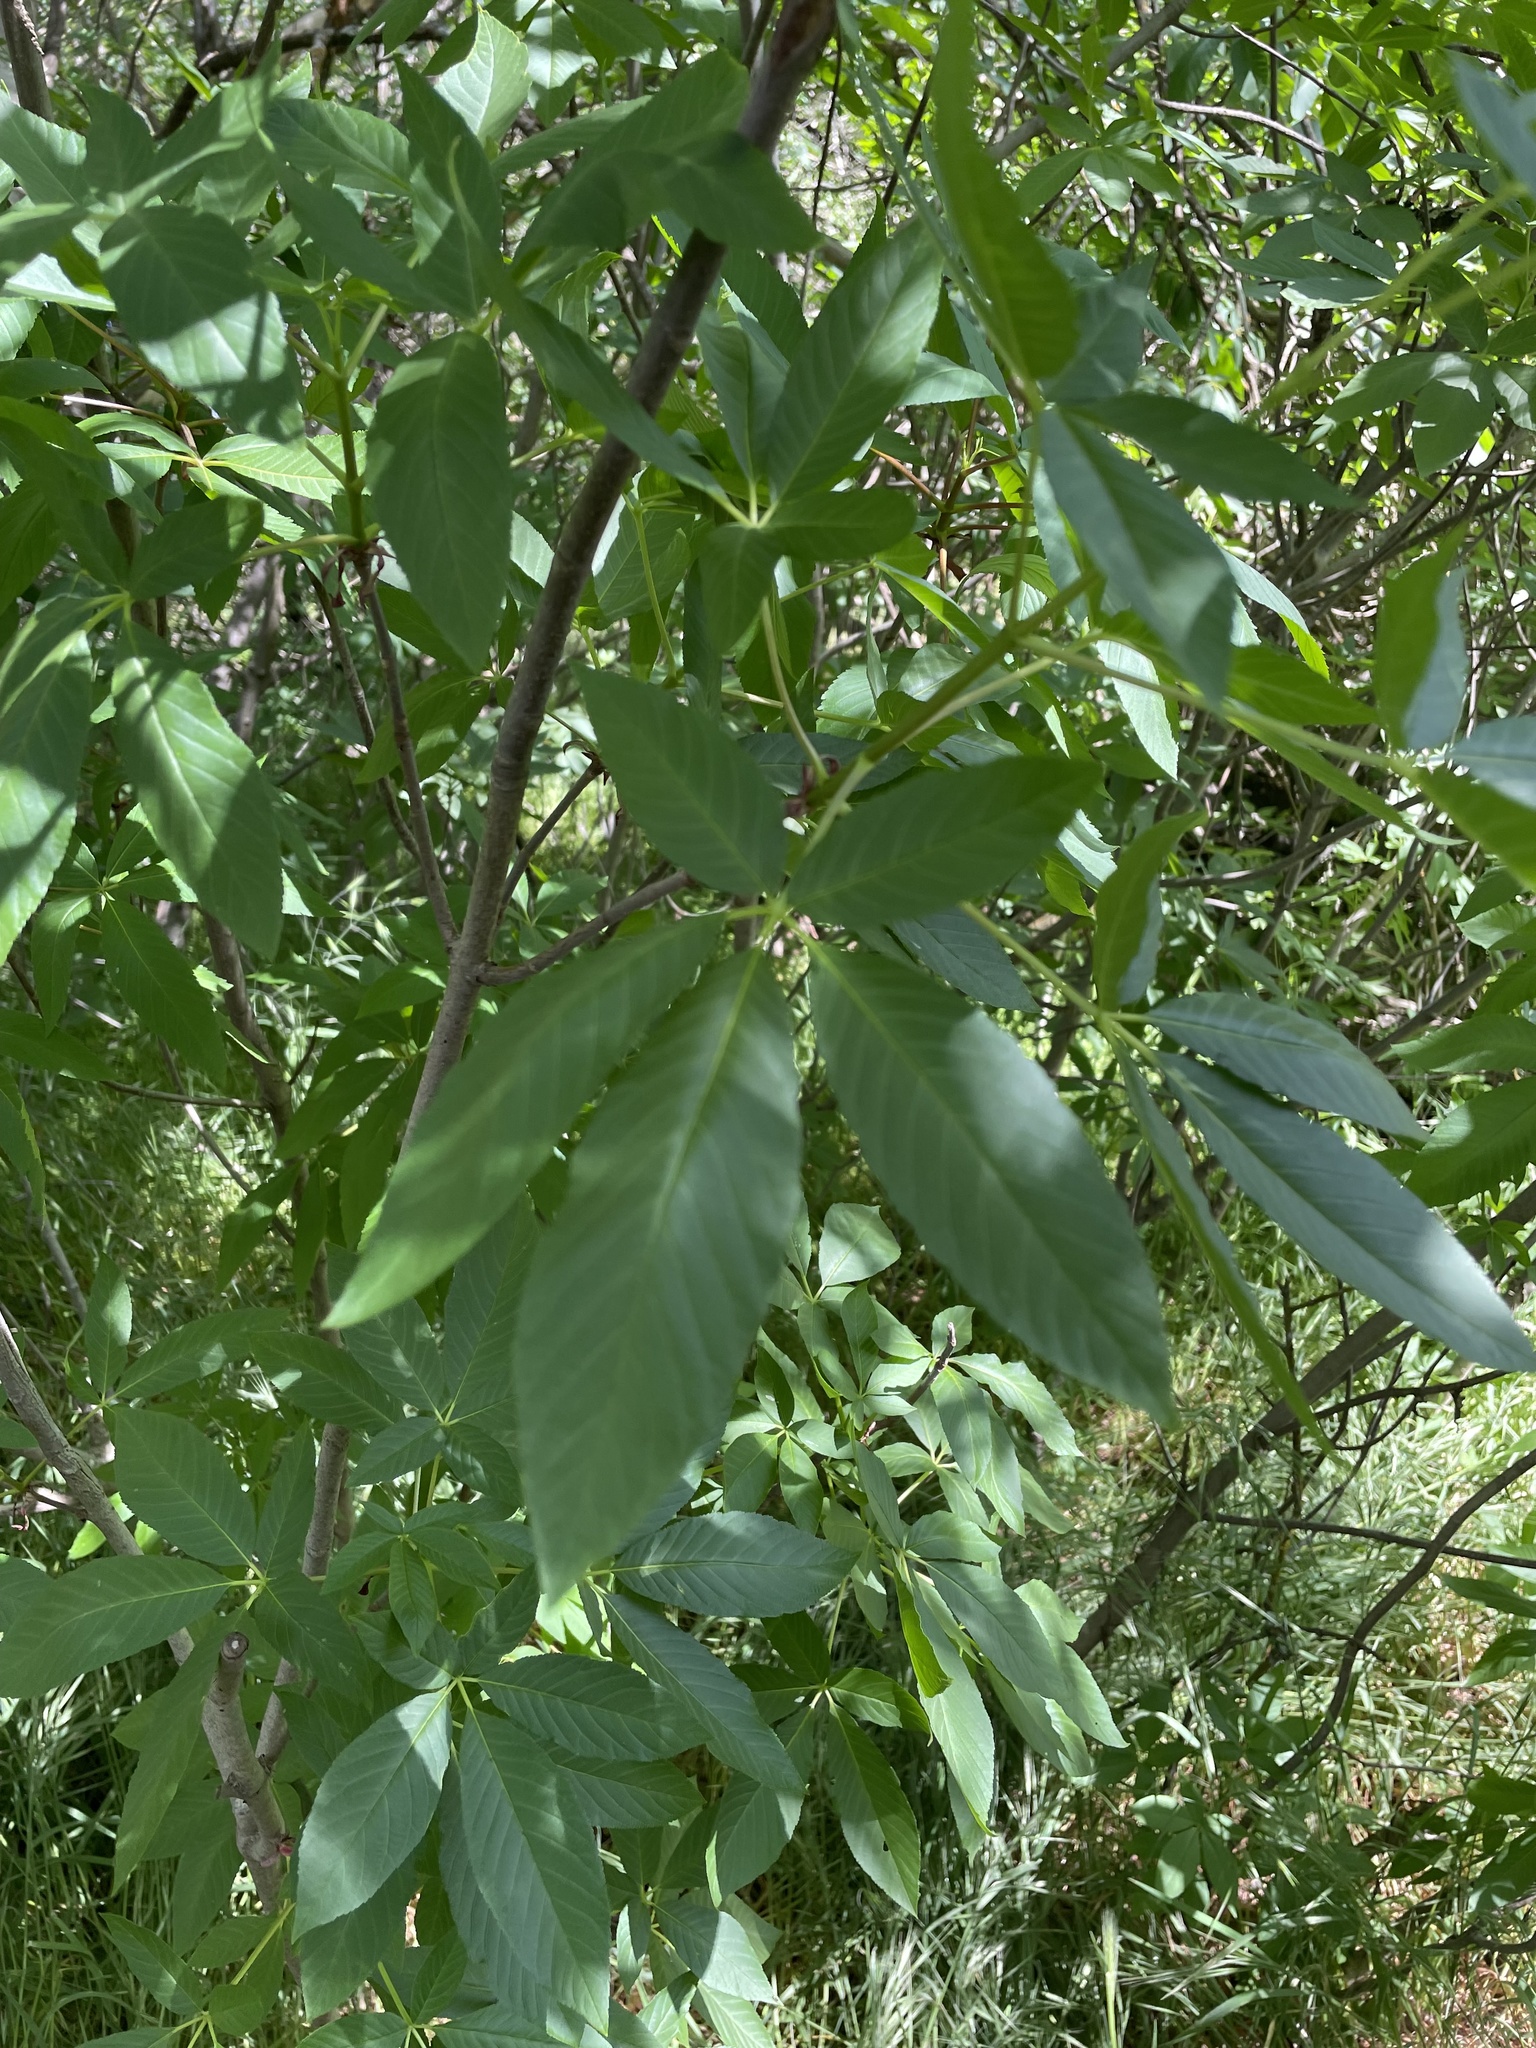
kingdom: Plantae
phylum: Tracheophyta
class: Magnoliopsida
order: Sapindales
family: Sapindaceae
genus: Aesculus
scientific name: Aesculus californica
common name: California buckeye
